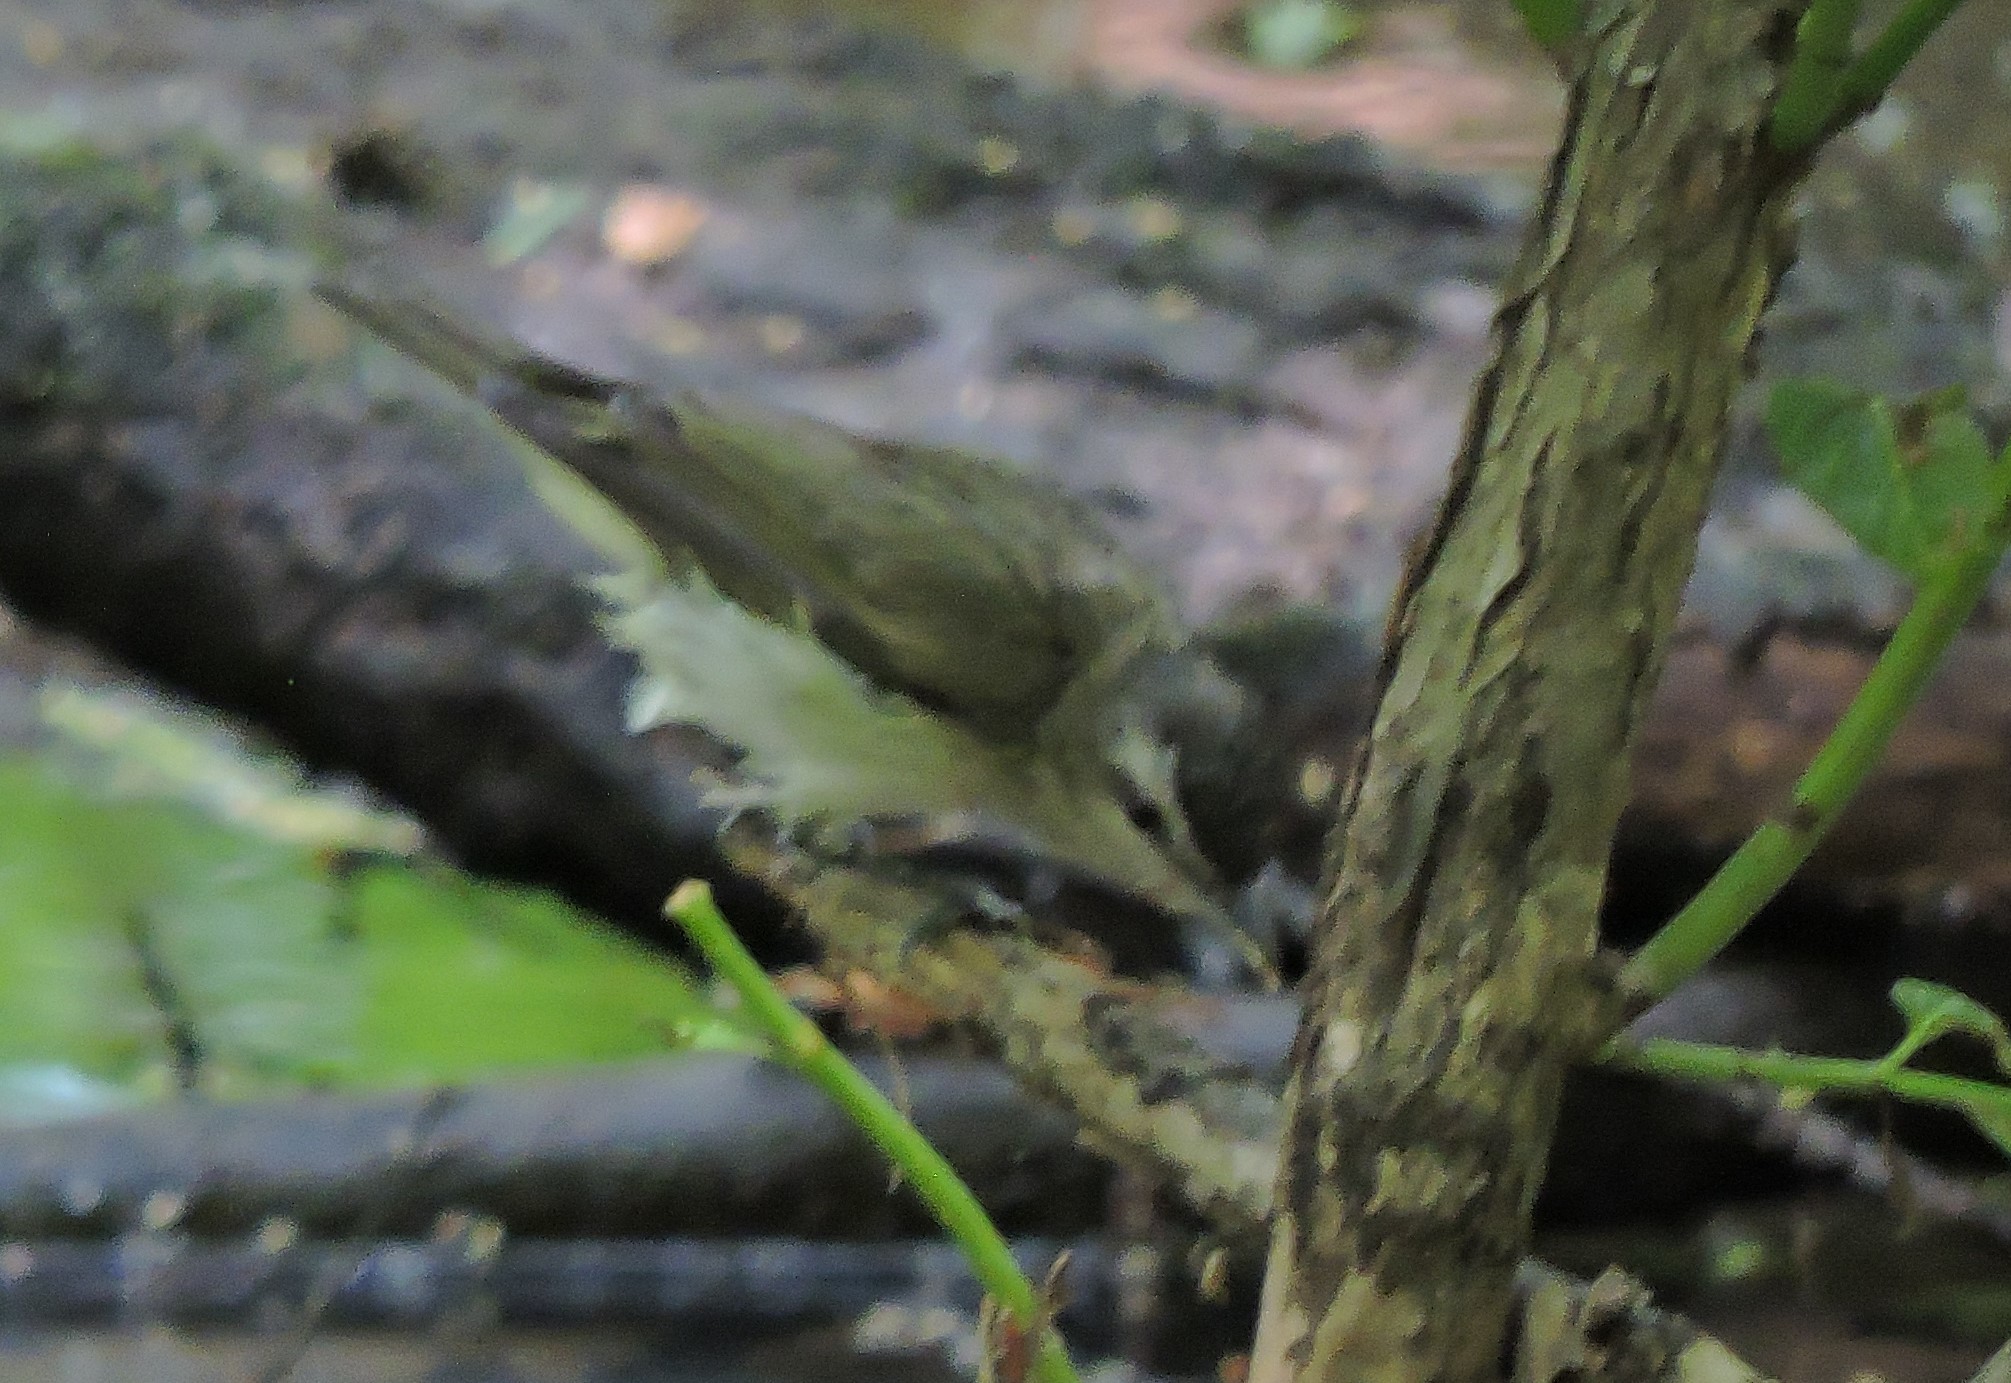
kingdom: Animalia
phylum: Chordata
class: Aves
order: Passeriformes
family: Vireonidae
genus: Vireo
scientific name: Vireo olivaceus
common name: Red-eyed vireo
